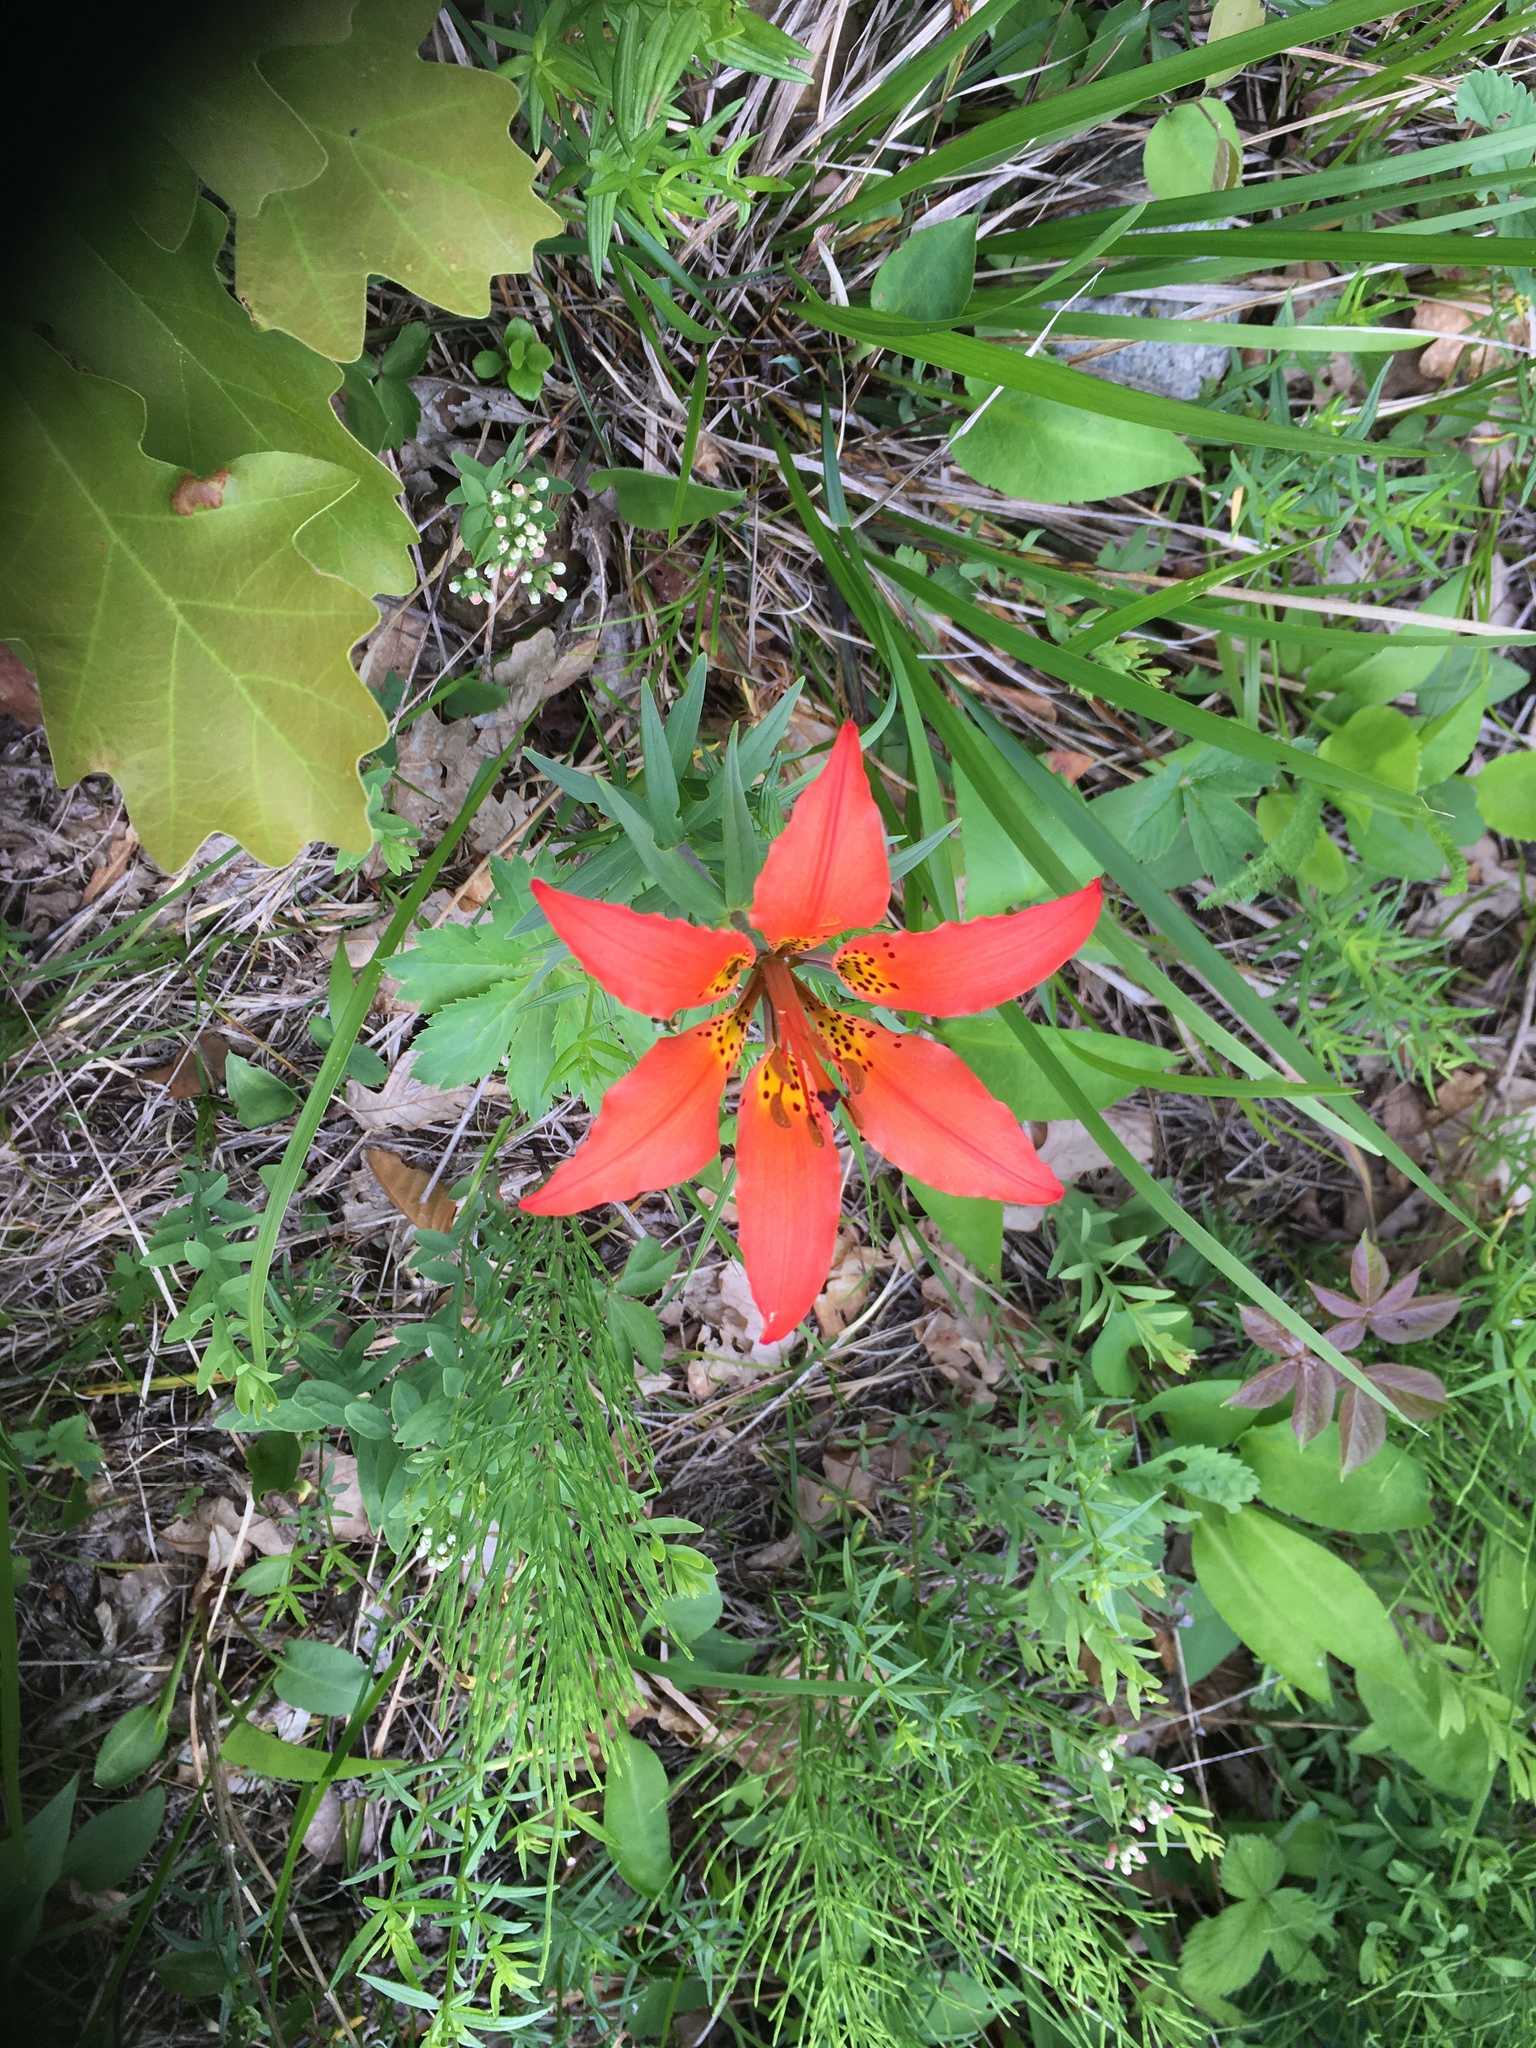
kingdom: Plantae
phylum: Tracheophyta
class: Liliopsida
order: Liliales
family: Liliaceae
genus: Lilium
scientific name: Lilium philadelphicum
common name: Red lily
